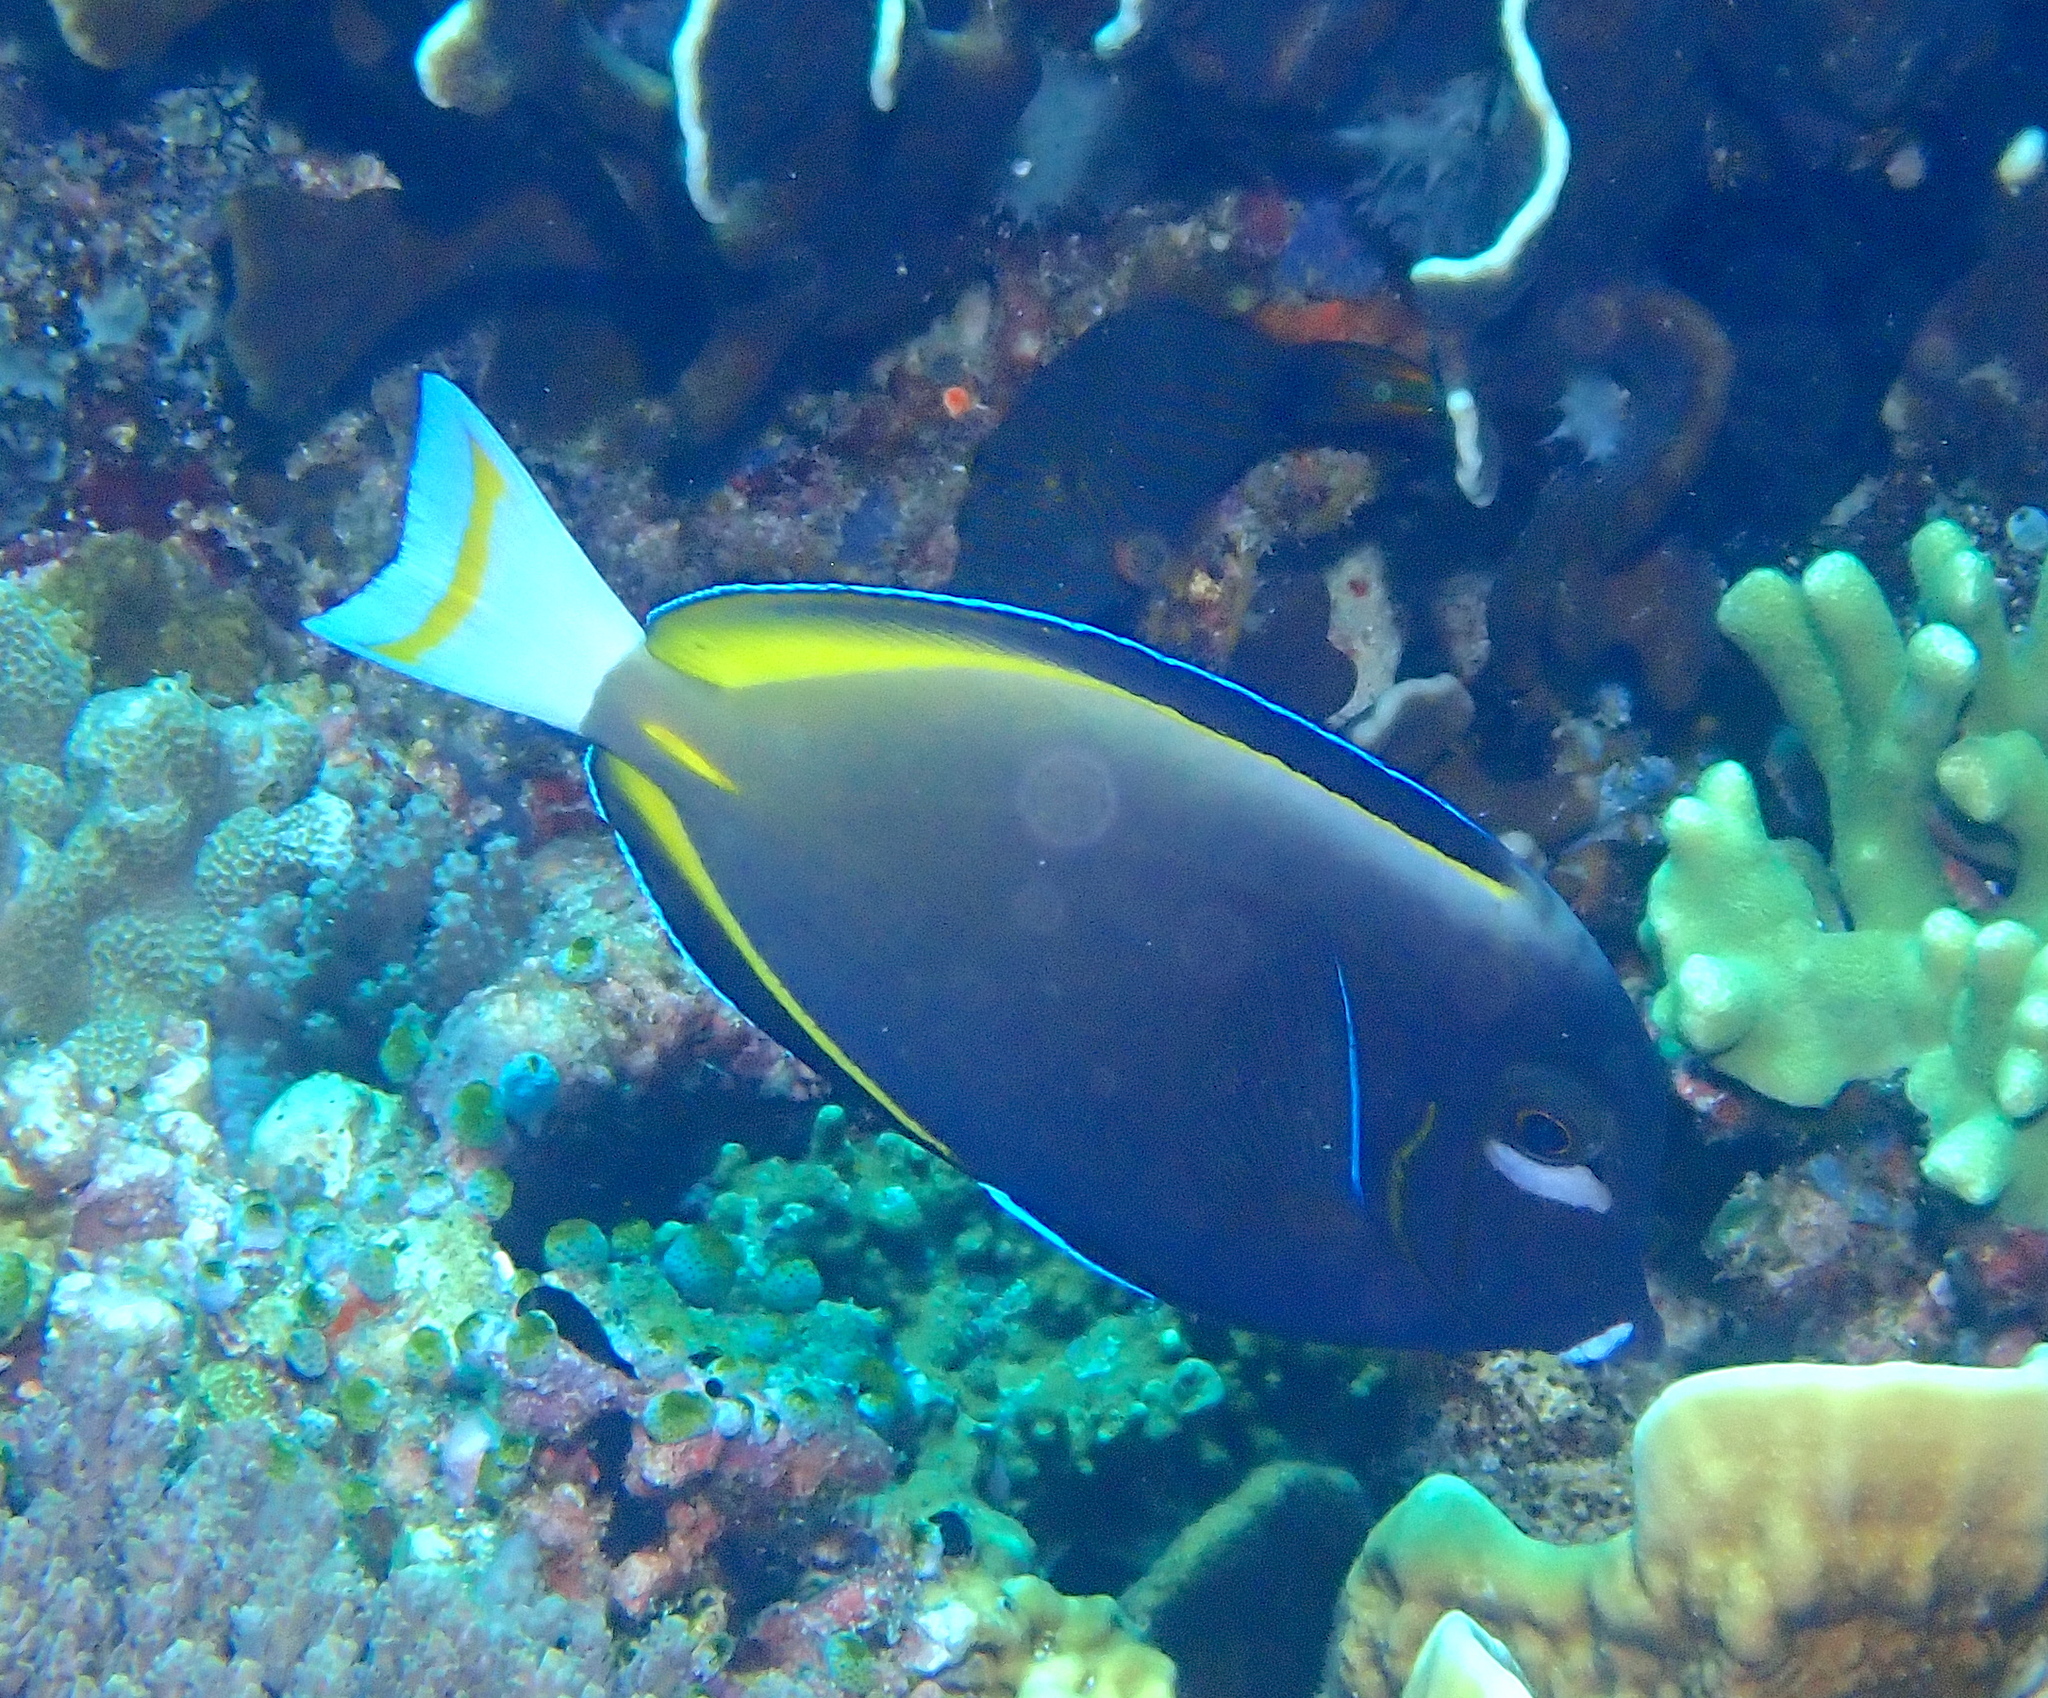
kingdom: Animalia
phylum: Chordata
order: Perciformes
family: Acanthuridae
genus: Acanthurus
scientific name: Acanthurus nigricans
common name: Whitecheek surgeonfish
